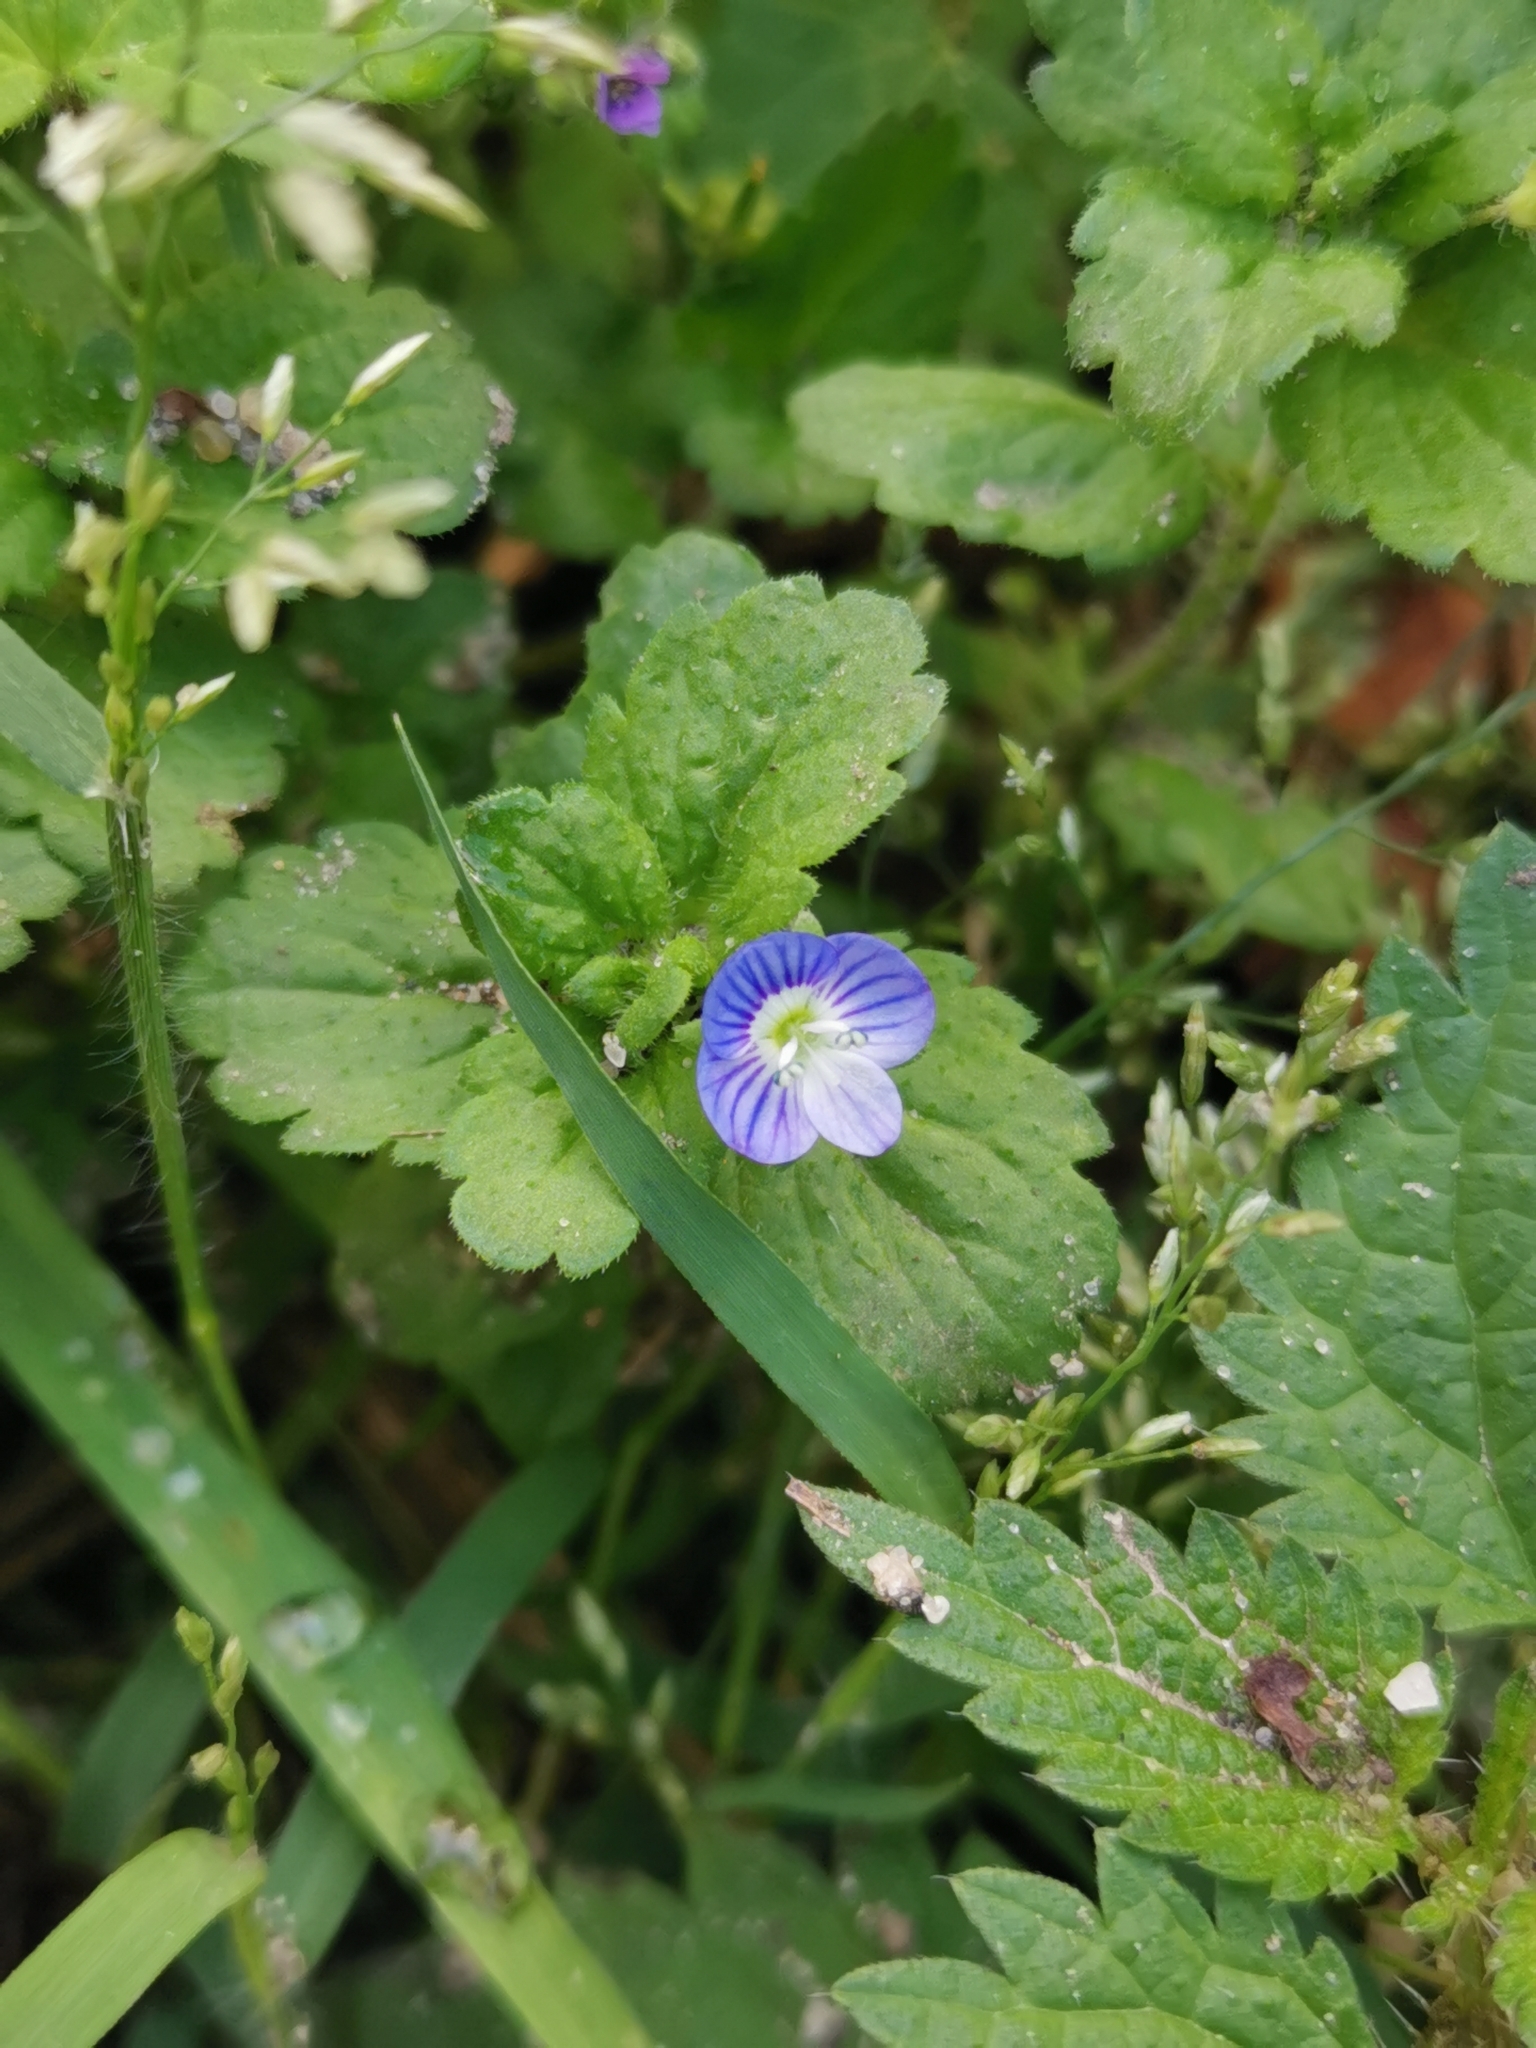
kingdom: Plantae
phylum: Tracheophyta
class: Magnoliopsida
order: Lamiales
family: Plantaginaceae
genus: Veronica
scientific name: Veronica persica
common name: Common field-speedwell
